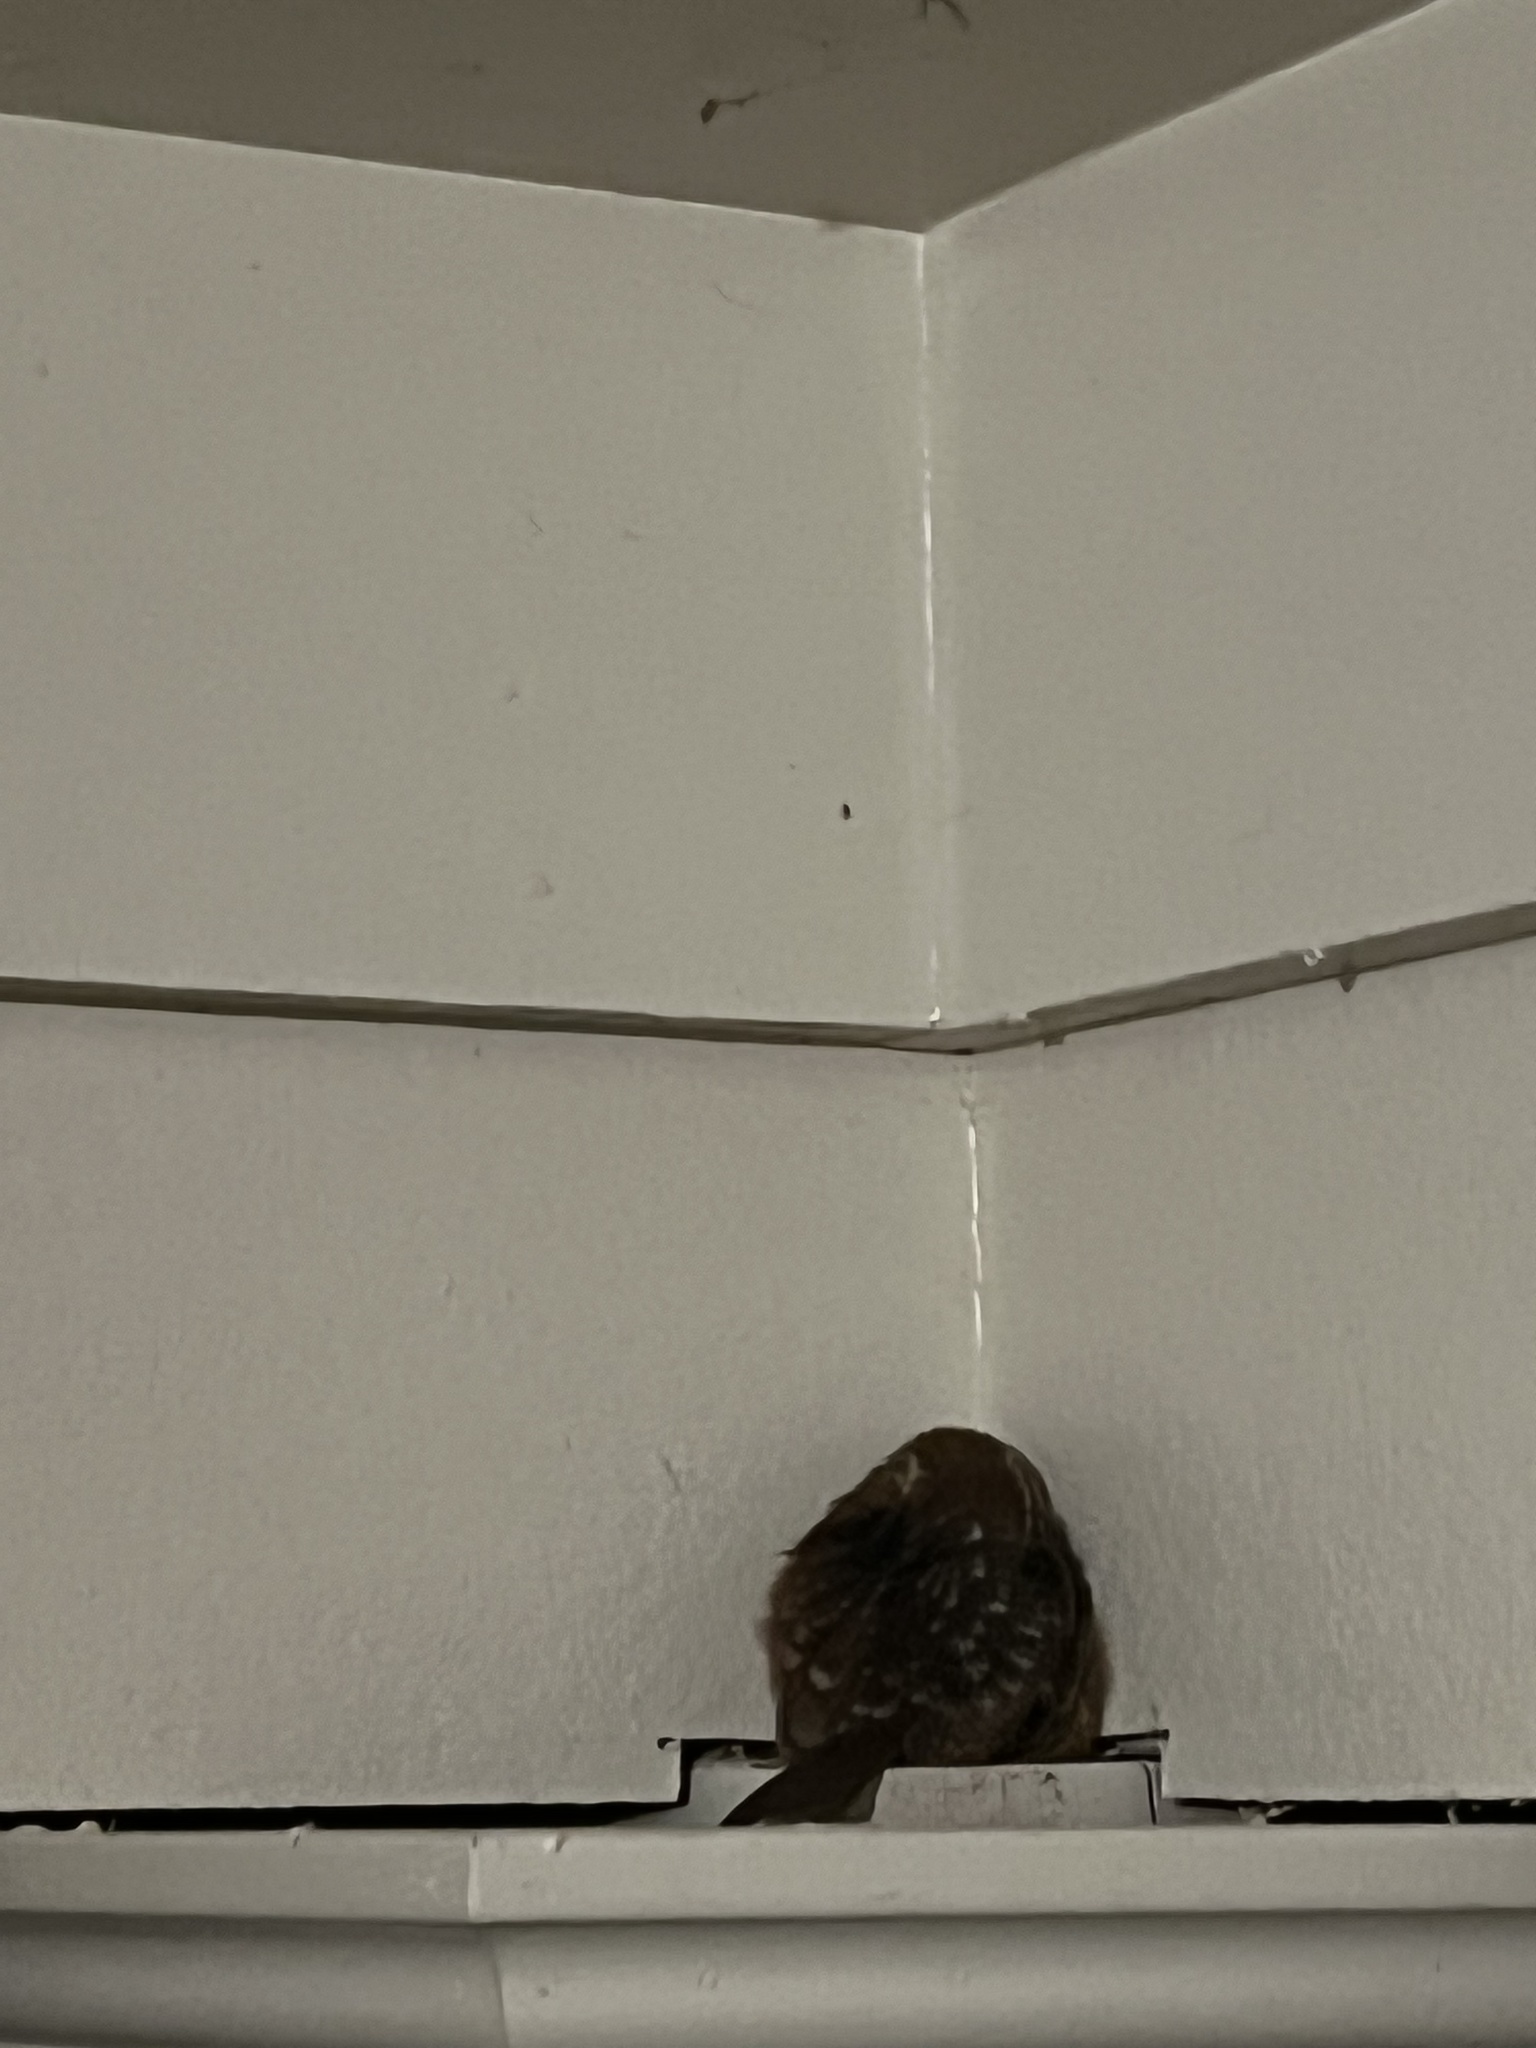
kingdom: Animalia
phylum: Chordata
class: Aves
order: Passeriformes
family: Troglodytidae
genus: Thryothorus
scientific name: Thryothorus ludovicianus
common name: Carolina wren
